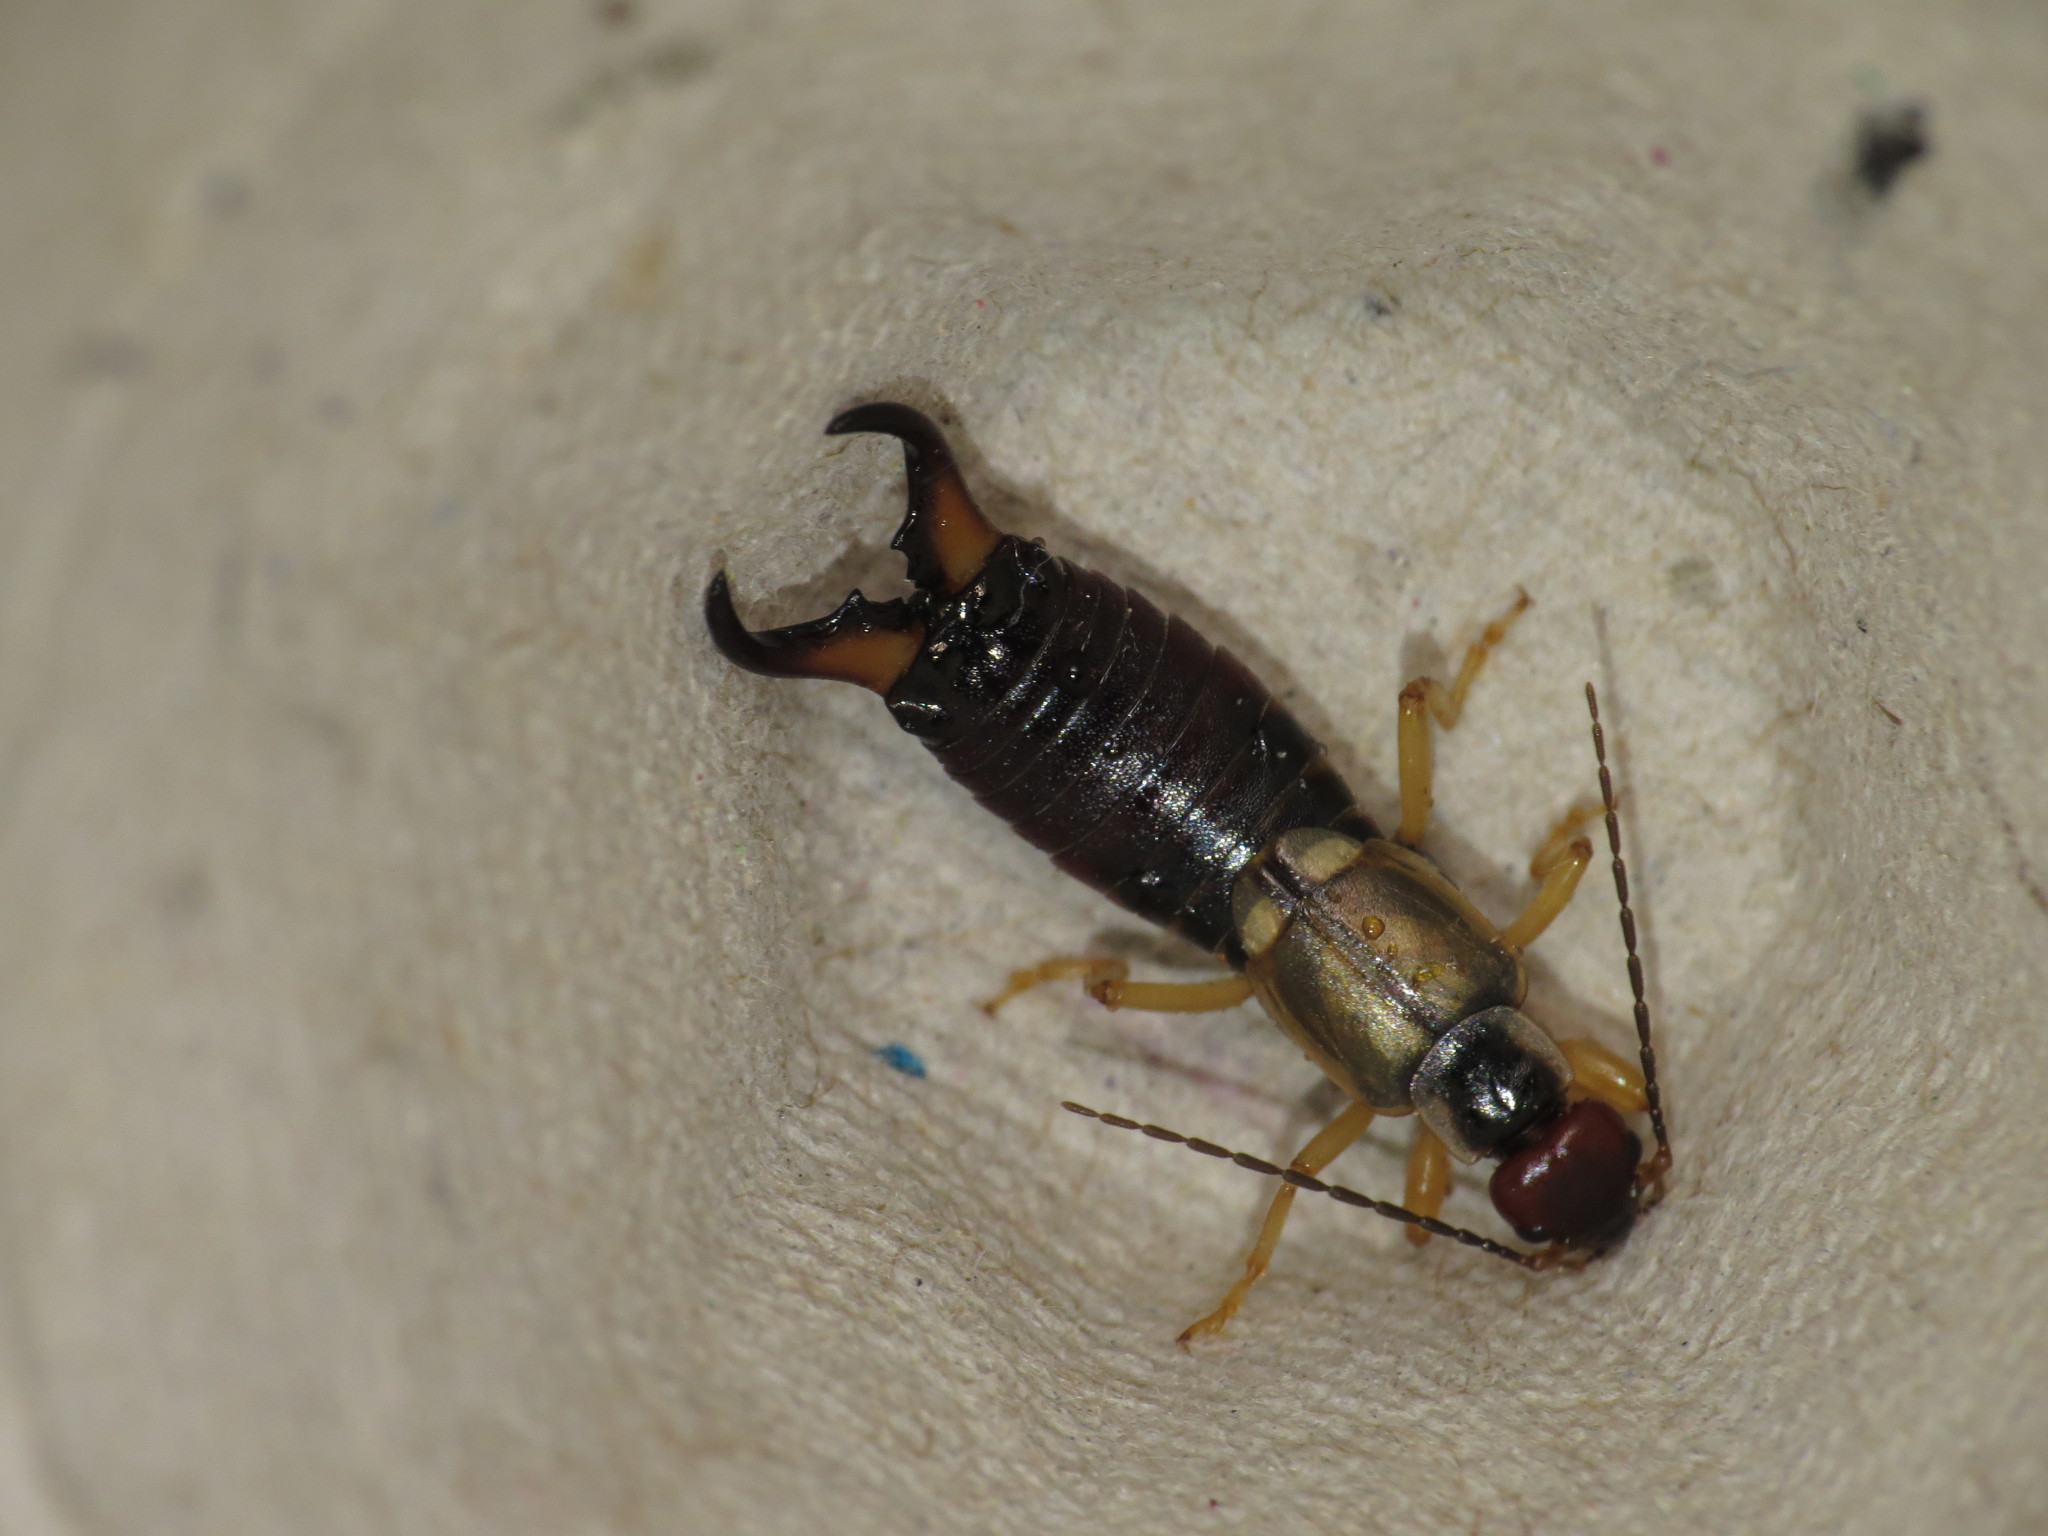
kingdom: Animalia
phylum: Arthropoda
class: Insecta
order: Dermaptera
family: Forficulidae
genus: Forficula
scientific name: Forficula dentata
